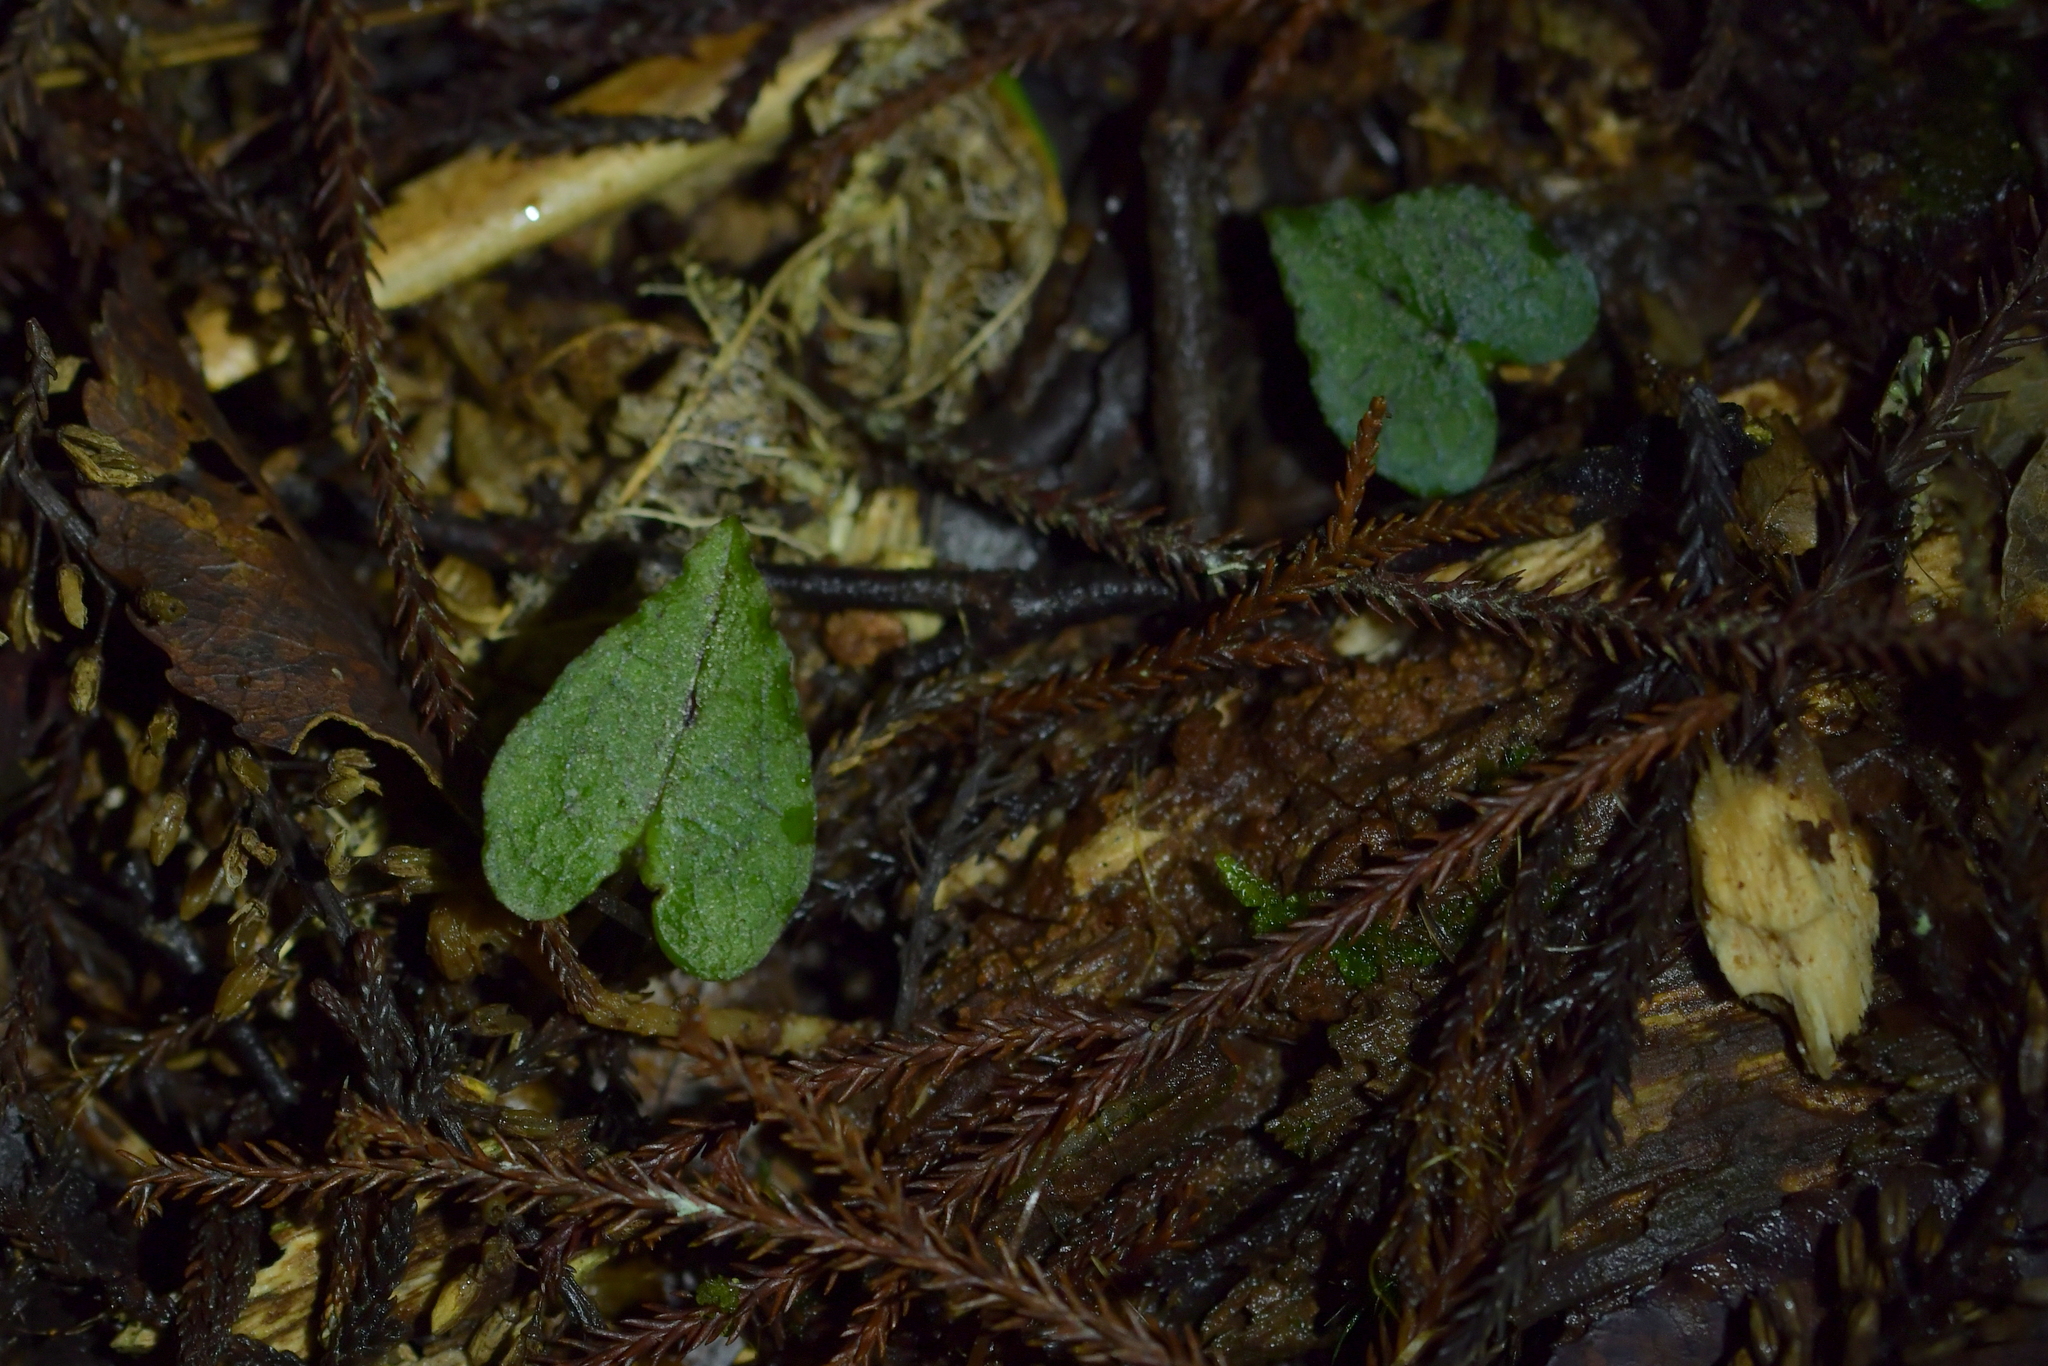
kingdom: Plantae
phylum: Tracheophyta
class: Liliopsida
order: Asparagales
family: Orchidaceae
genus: Corybas
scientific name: Corybas acuminatus
